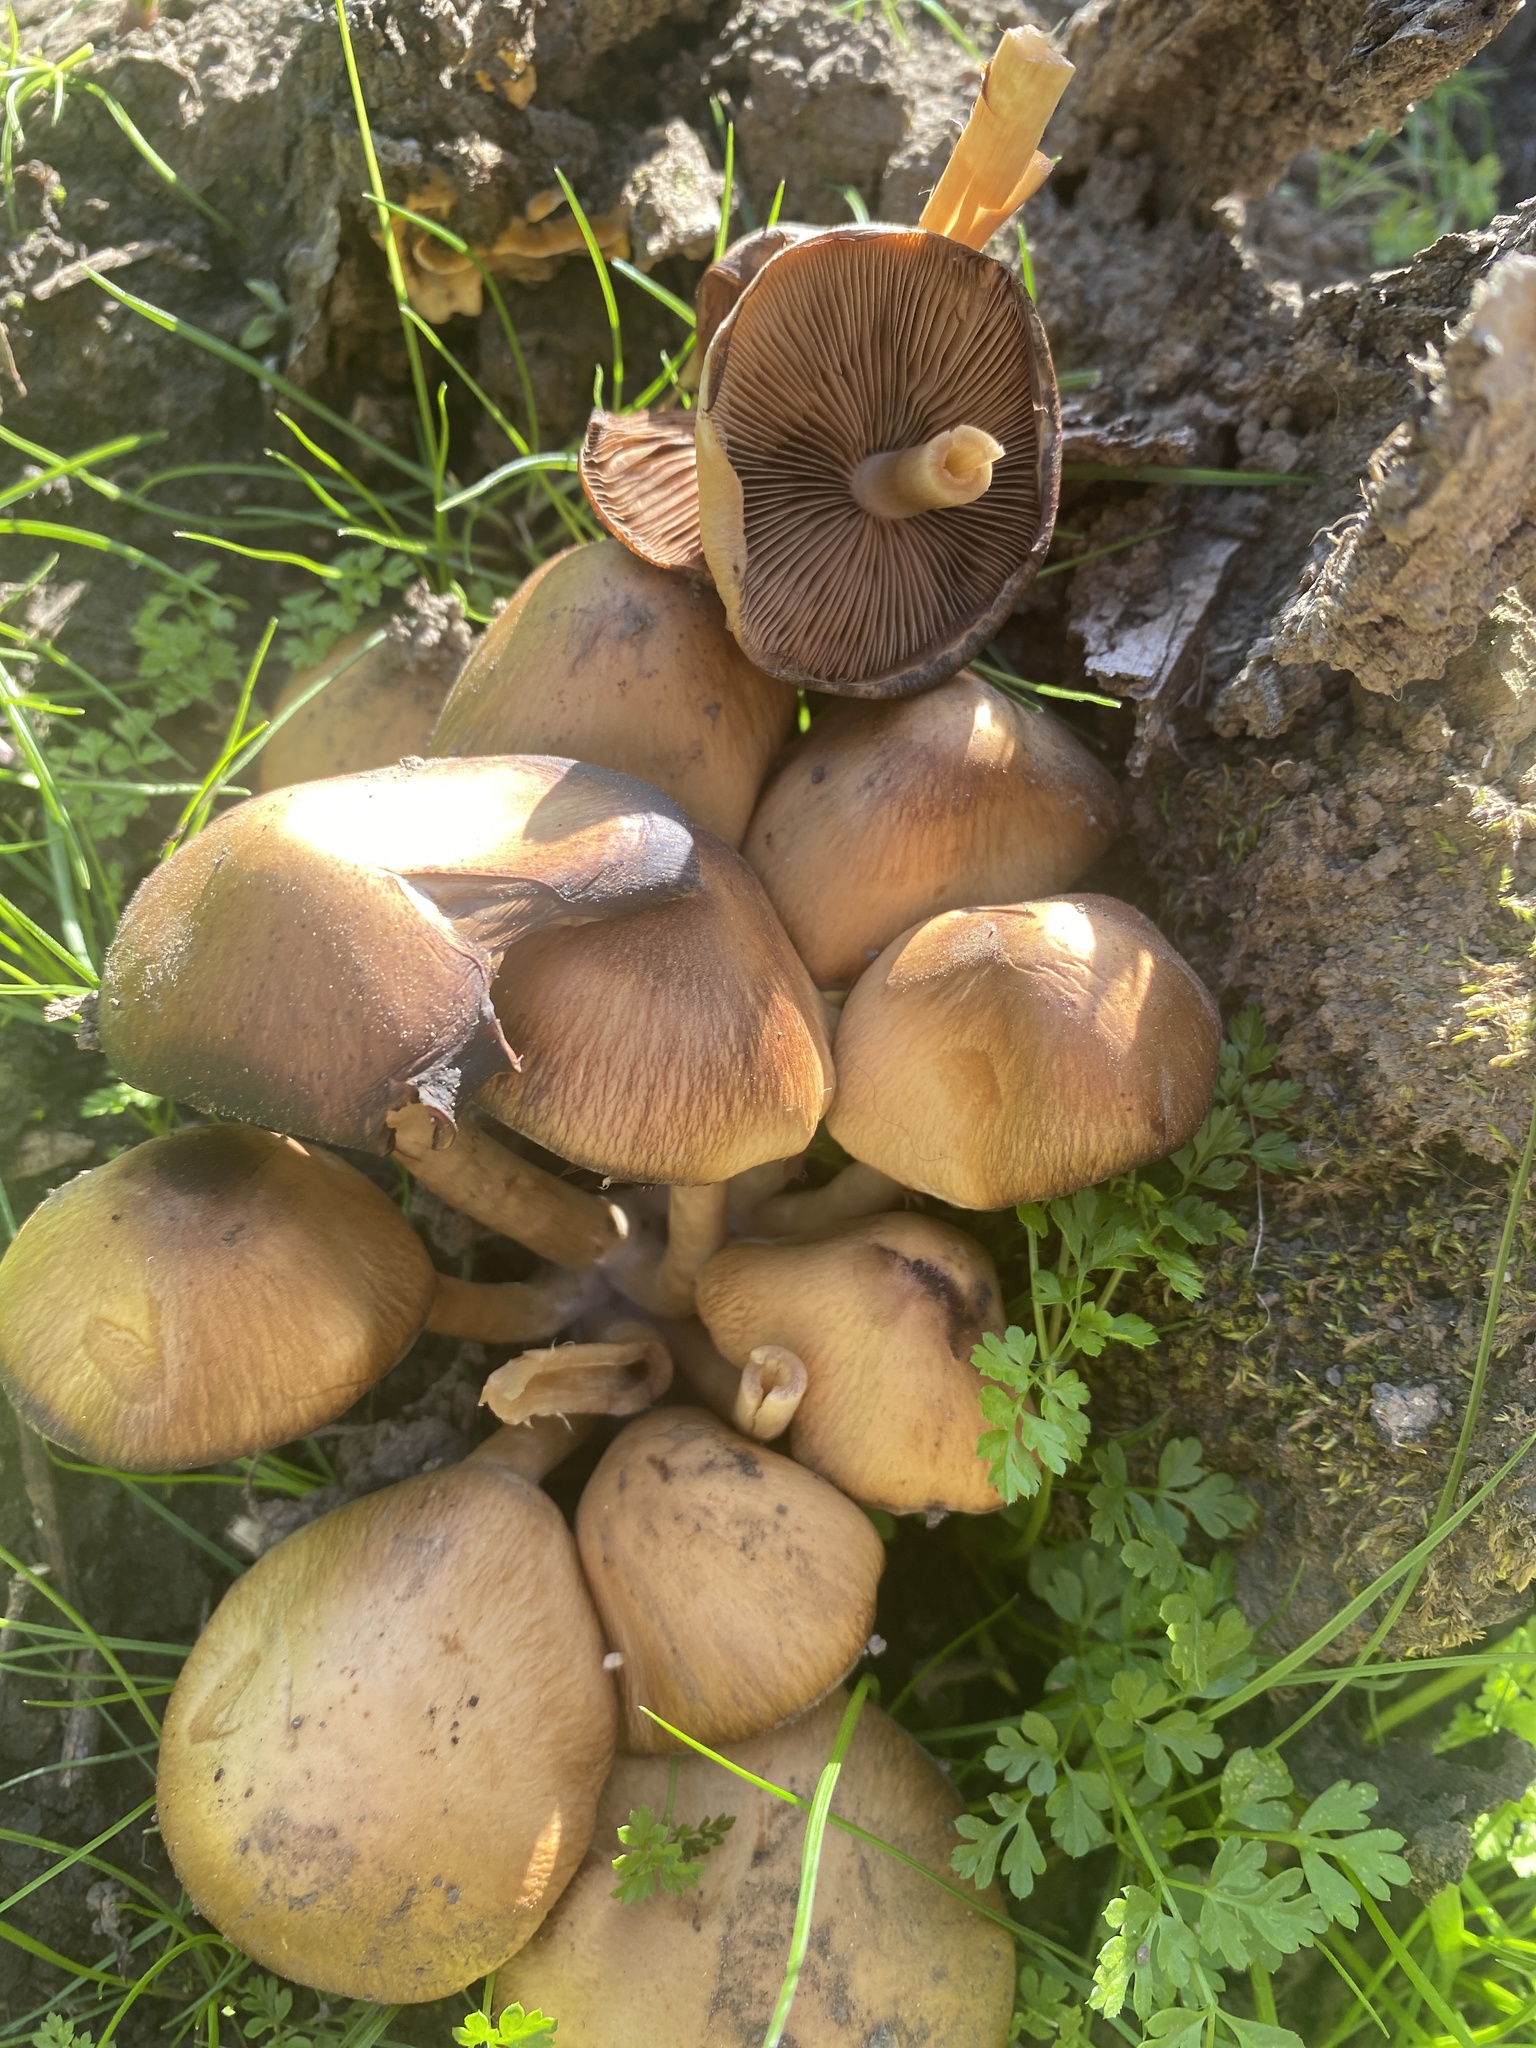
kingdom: Fungi
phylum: Basidiomycota
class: Agaricomycetes
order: Agaricales
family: Psathyrellaceae
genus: Psathyrella
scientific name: Psathyrella piluliformis
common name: Common stump brittlestem
